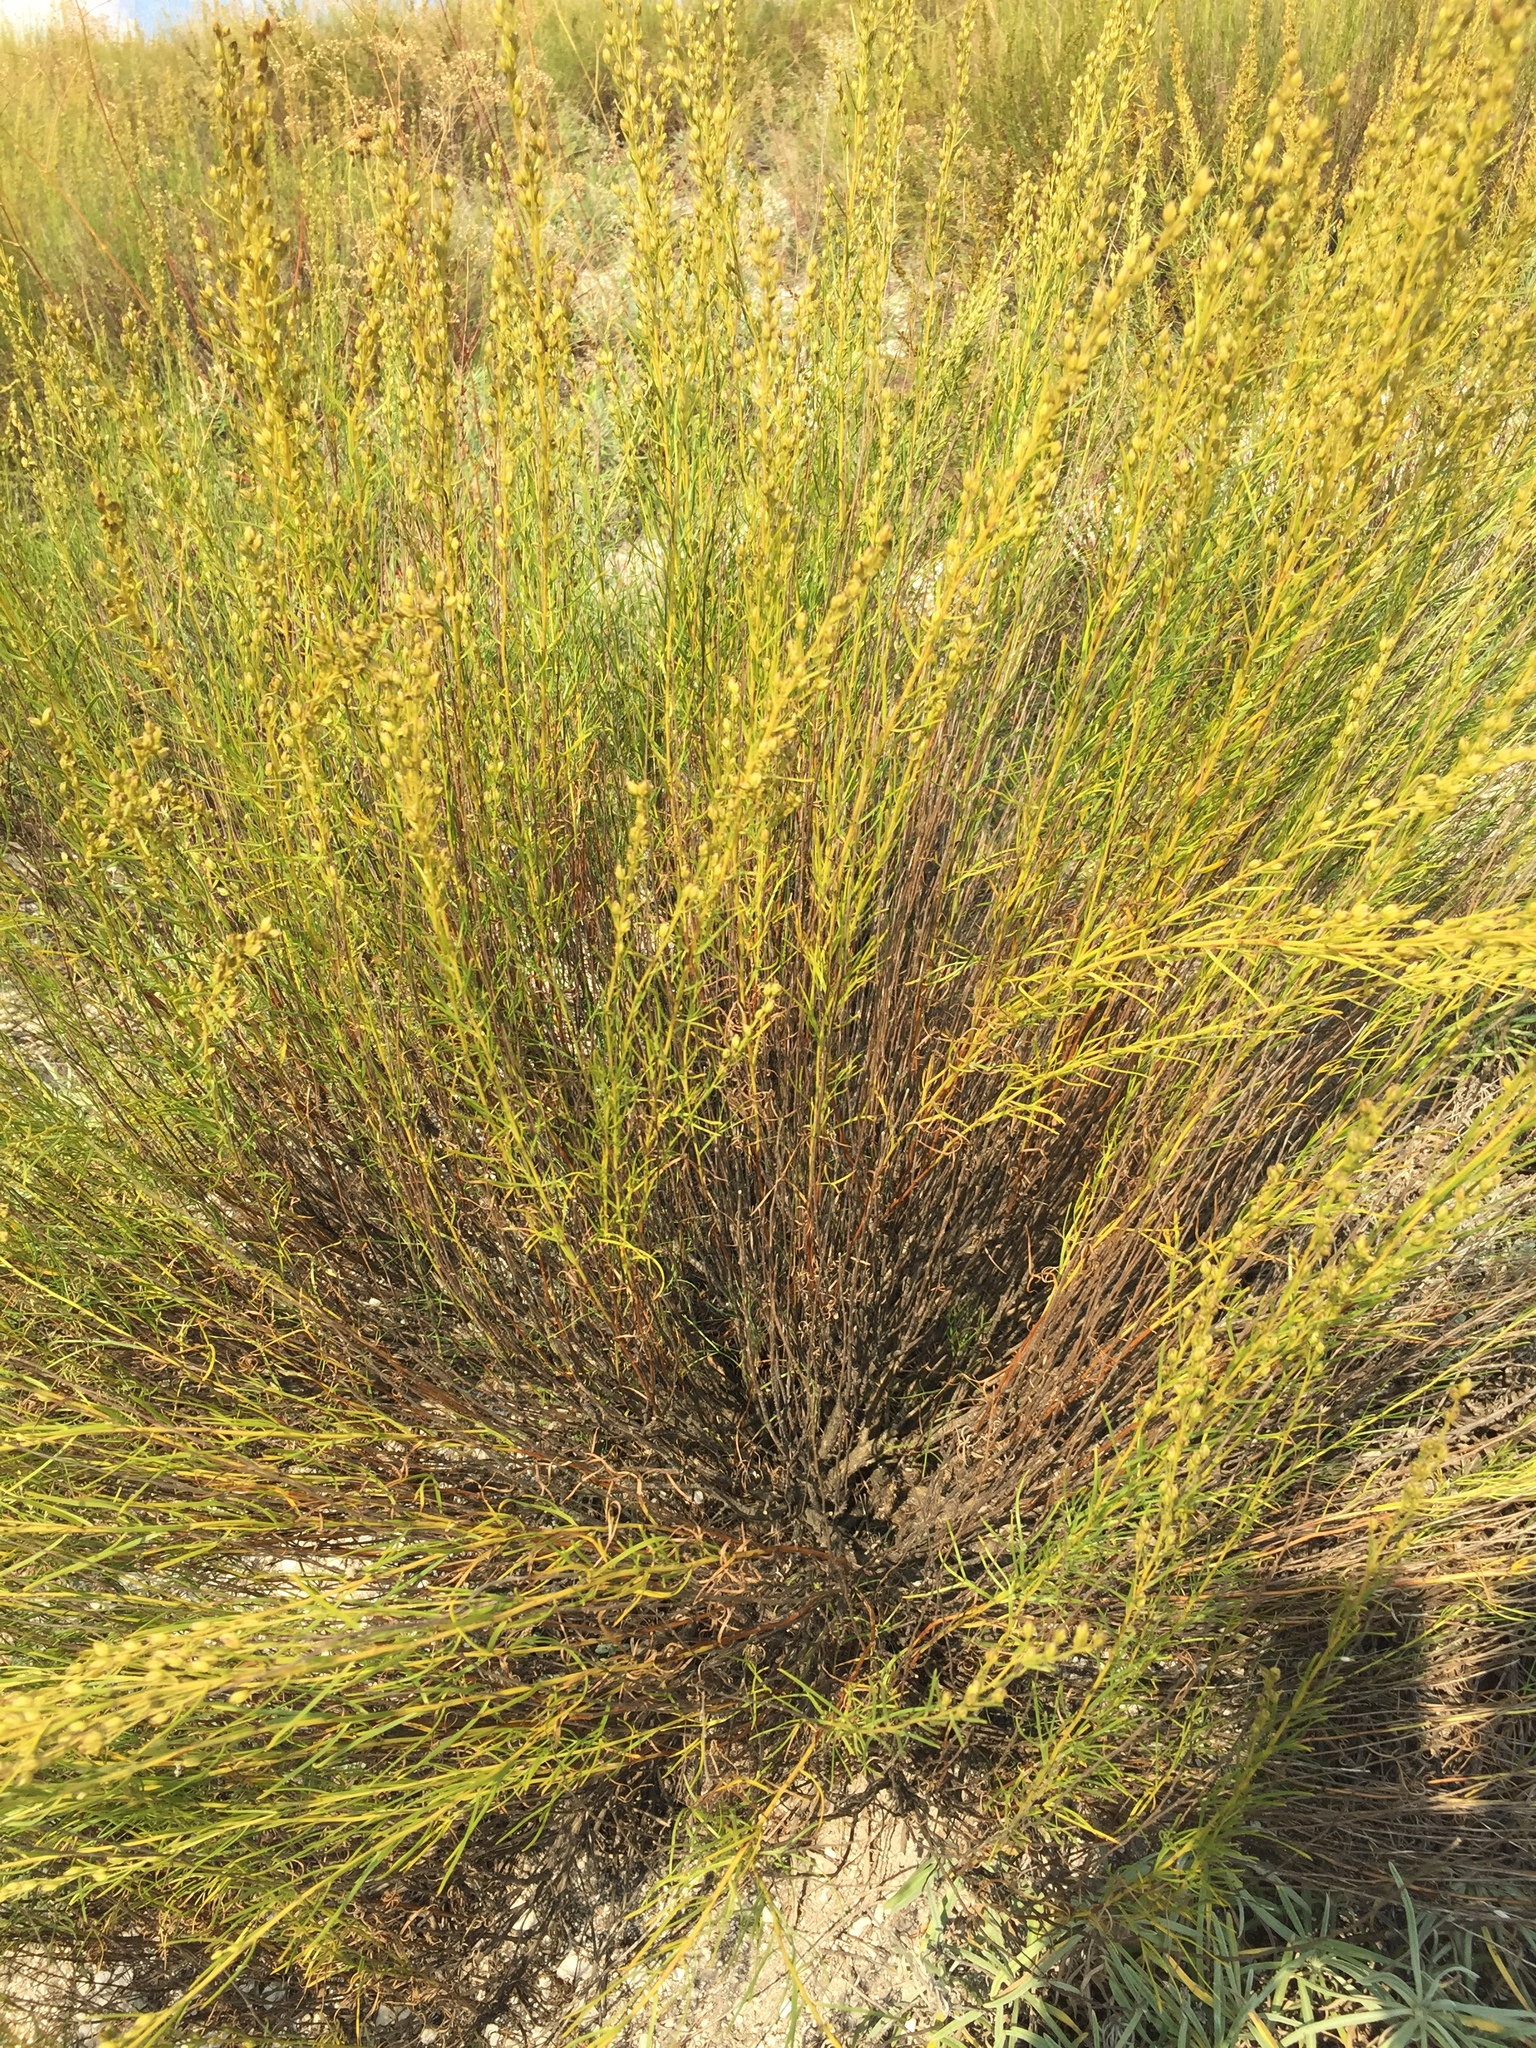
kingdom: Plantae
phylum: Tracheophyta
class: Magnoliopsida
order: Asterales
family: Asteraceae
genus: Artemisia
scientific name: Artemisia salsoloides
